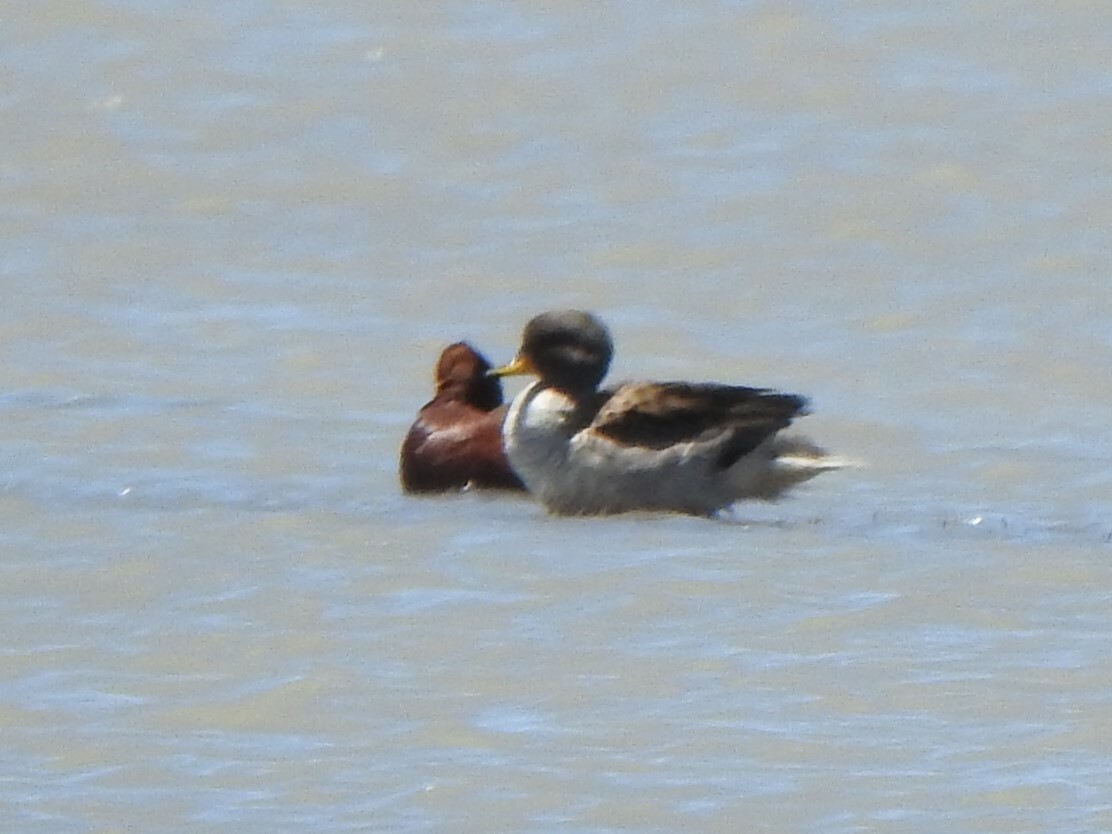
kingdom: Animalia
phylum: Chordata
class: Aves
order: Anseriformes
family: Anatidae
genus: Spatula
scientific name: Spatula cyanoptera
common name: Cinnamon teal
